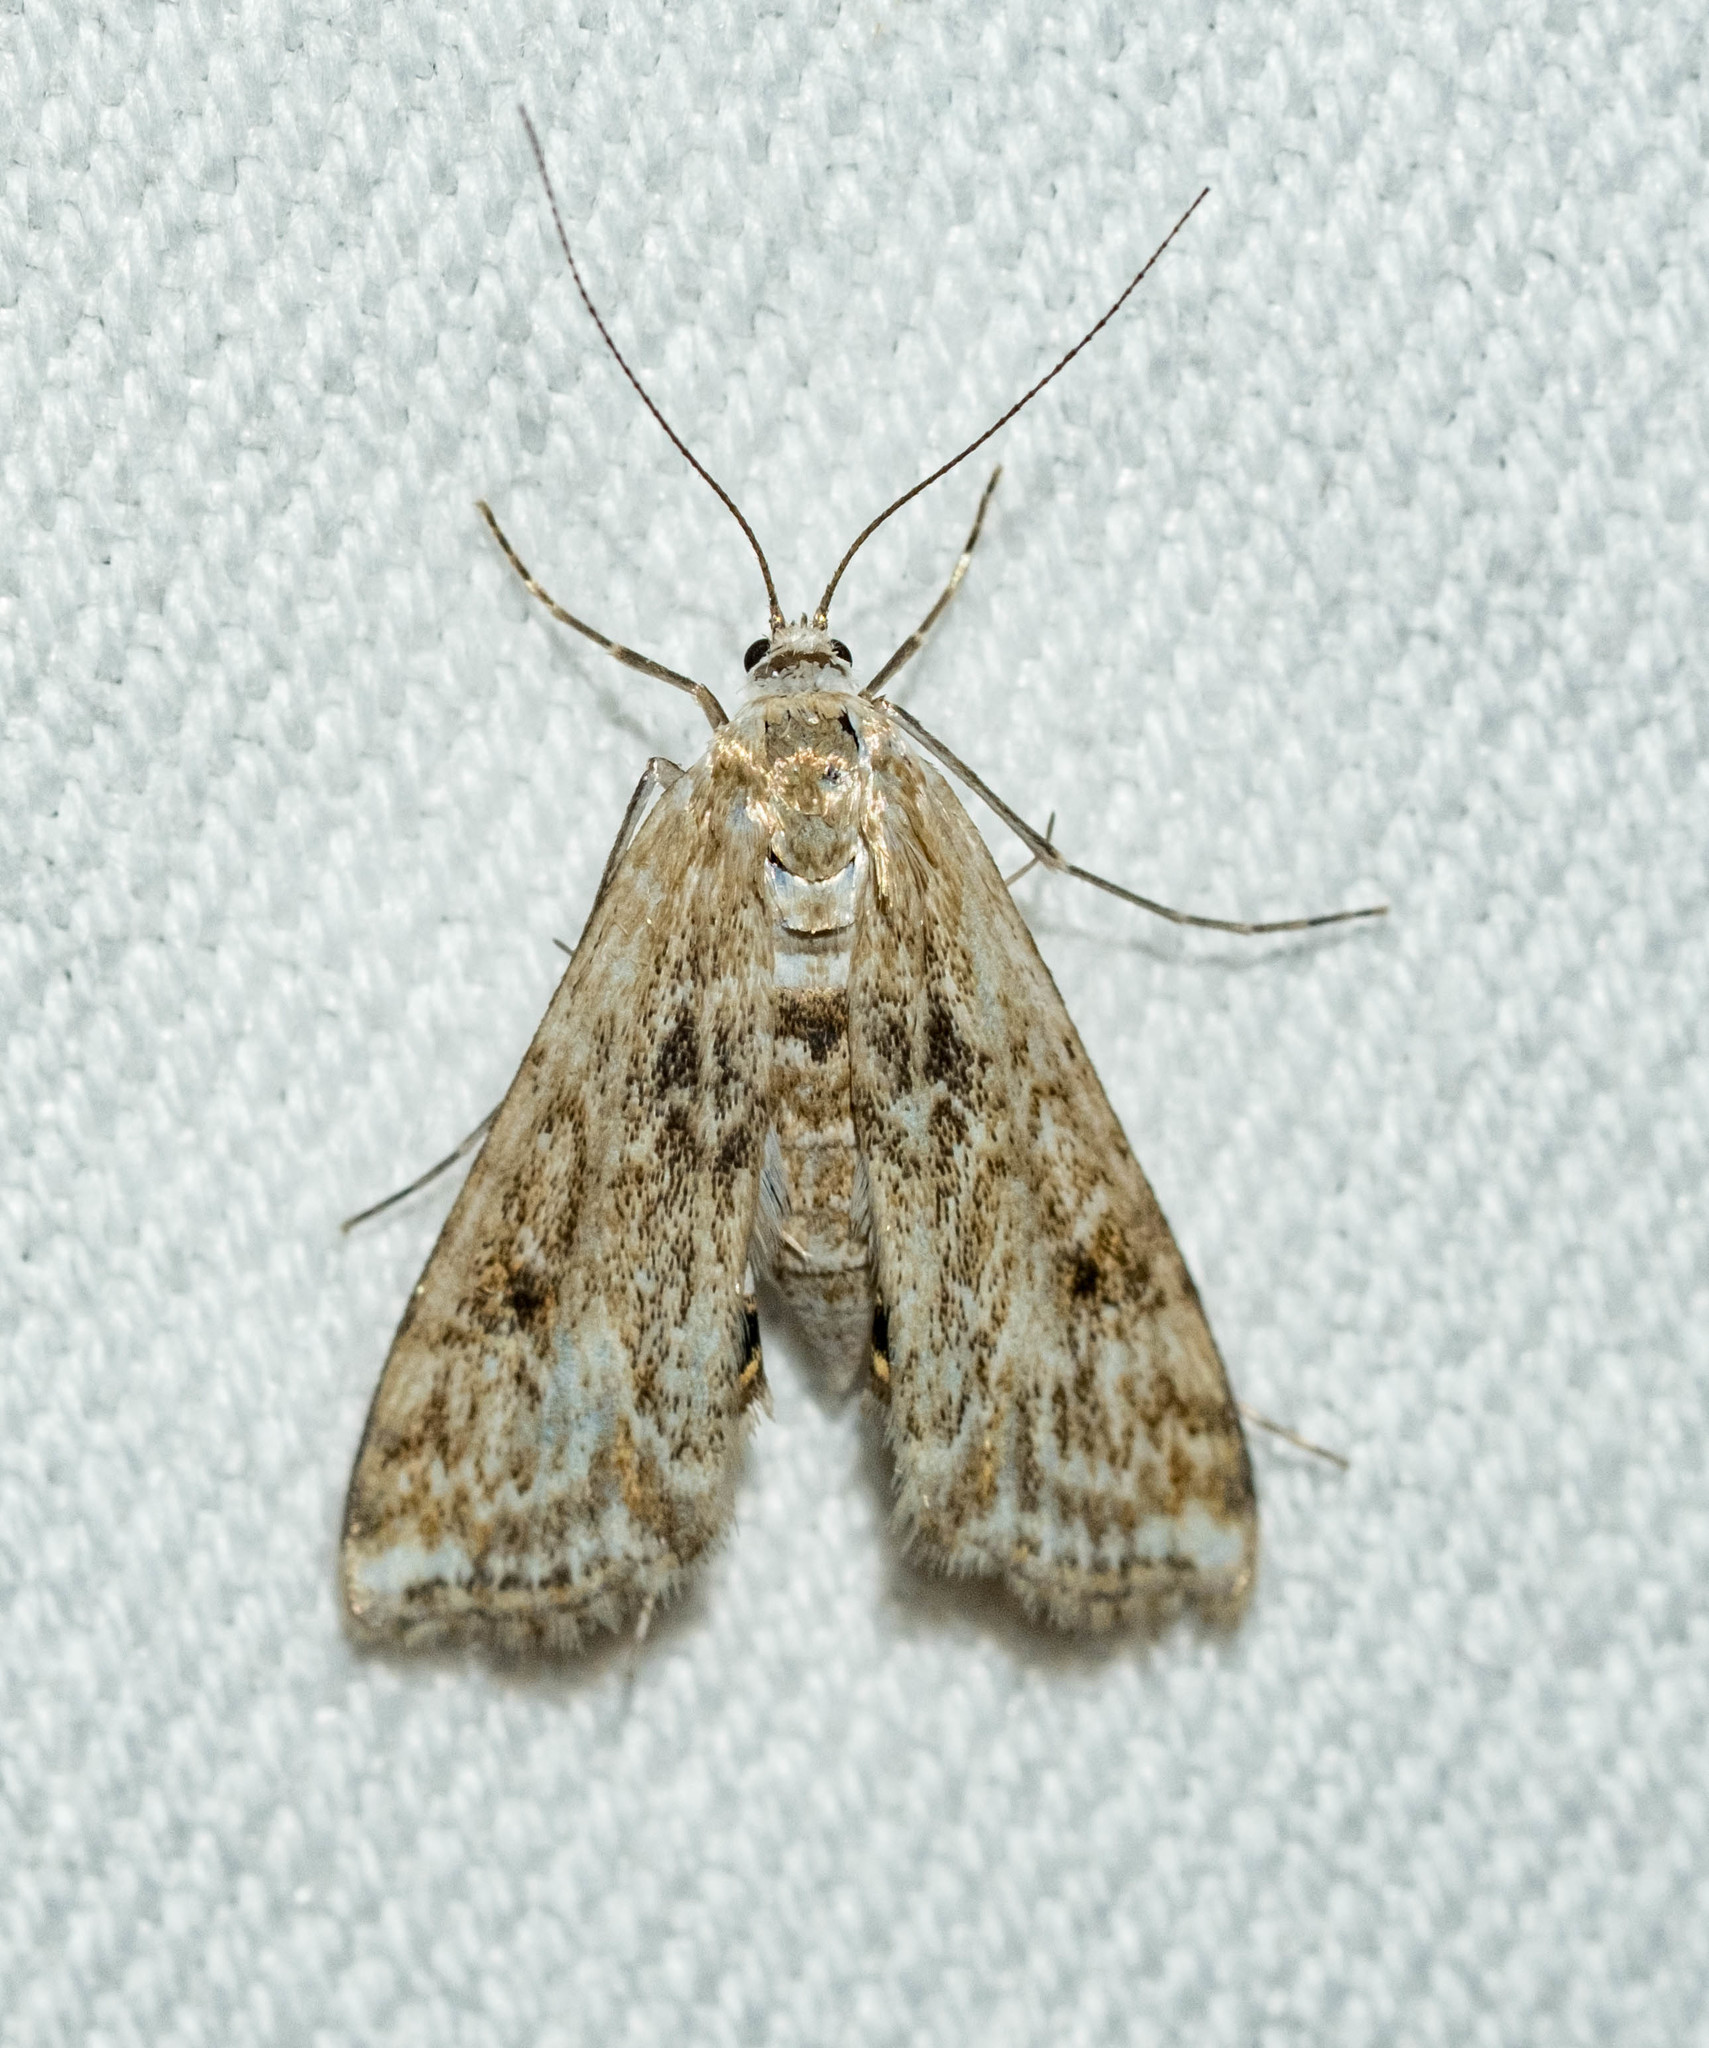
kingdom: Animalia
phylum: Arthropoda
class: Insecta
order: Lepidoptera
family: Crambidae
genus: Cataclysta
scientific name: Cataclysta lemnata
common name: Small china-mark
